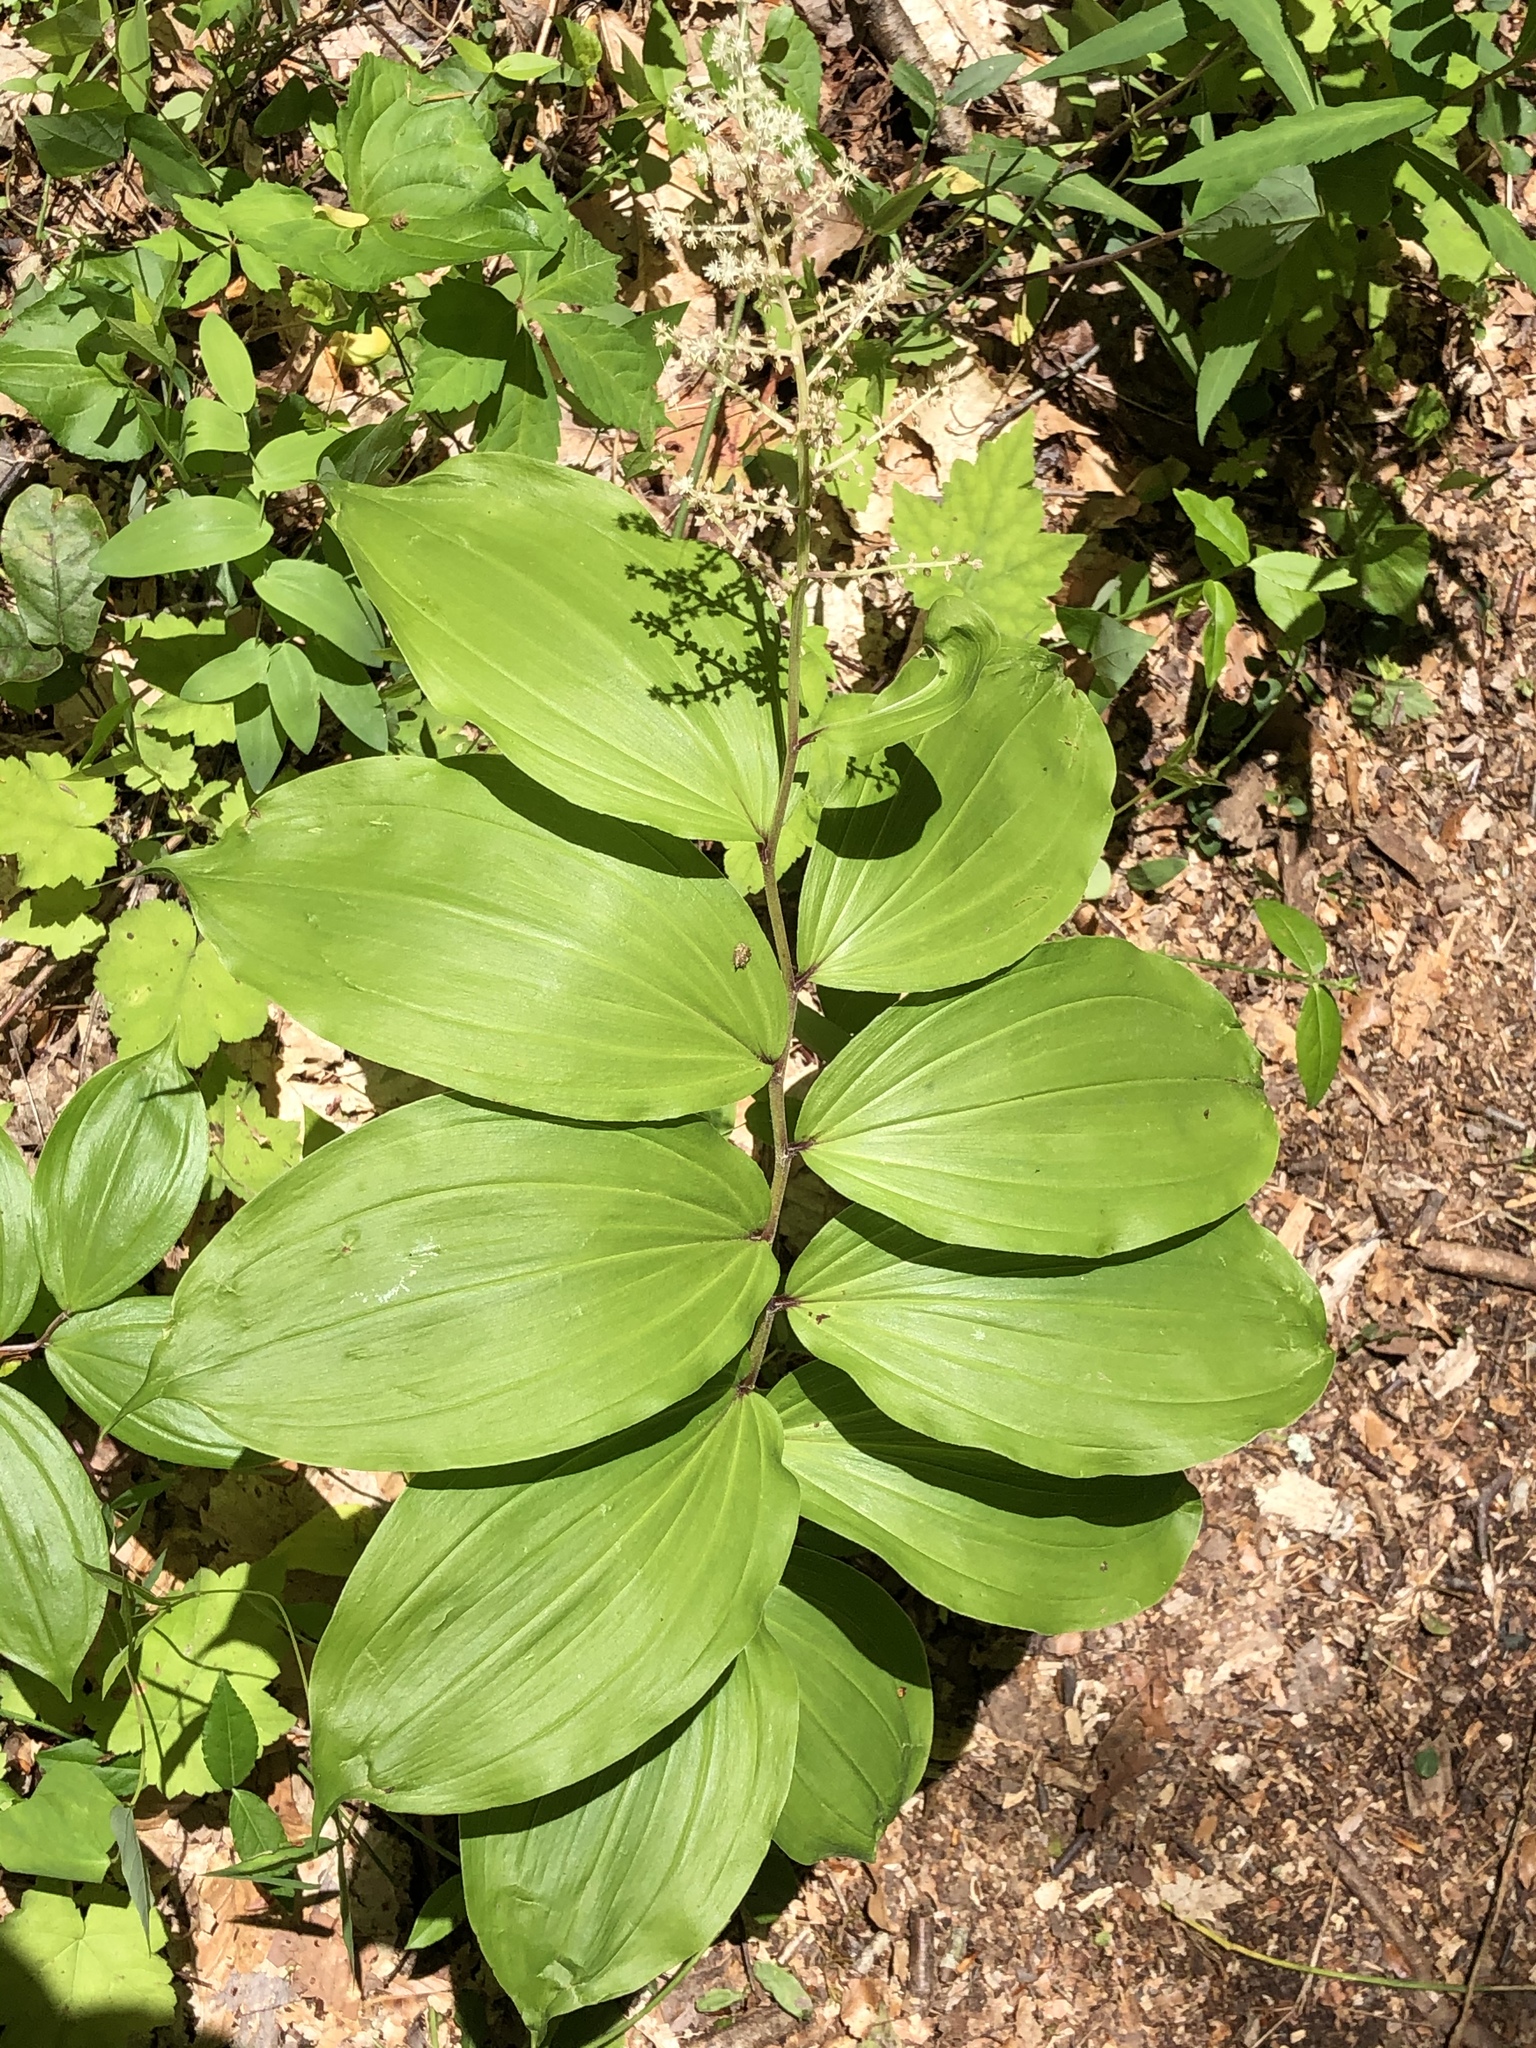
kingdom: Plantae
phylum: Tracheophyta
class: Liliopsida
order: Asparagales
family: Asparagaceae
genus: Maianthemum
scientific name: Maianthemum racemosum
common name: False spikenard
